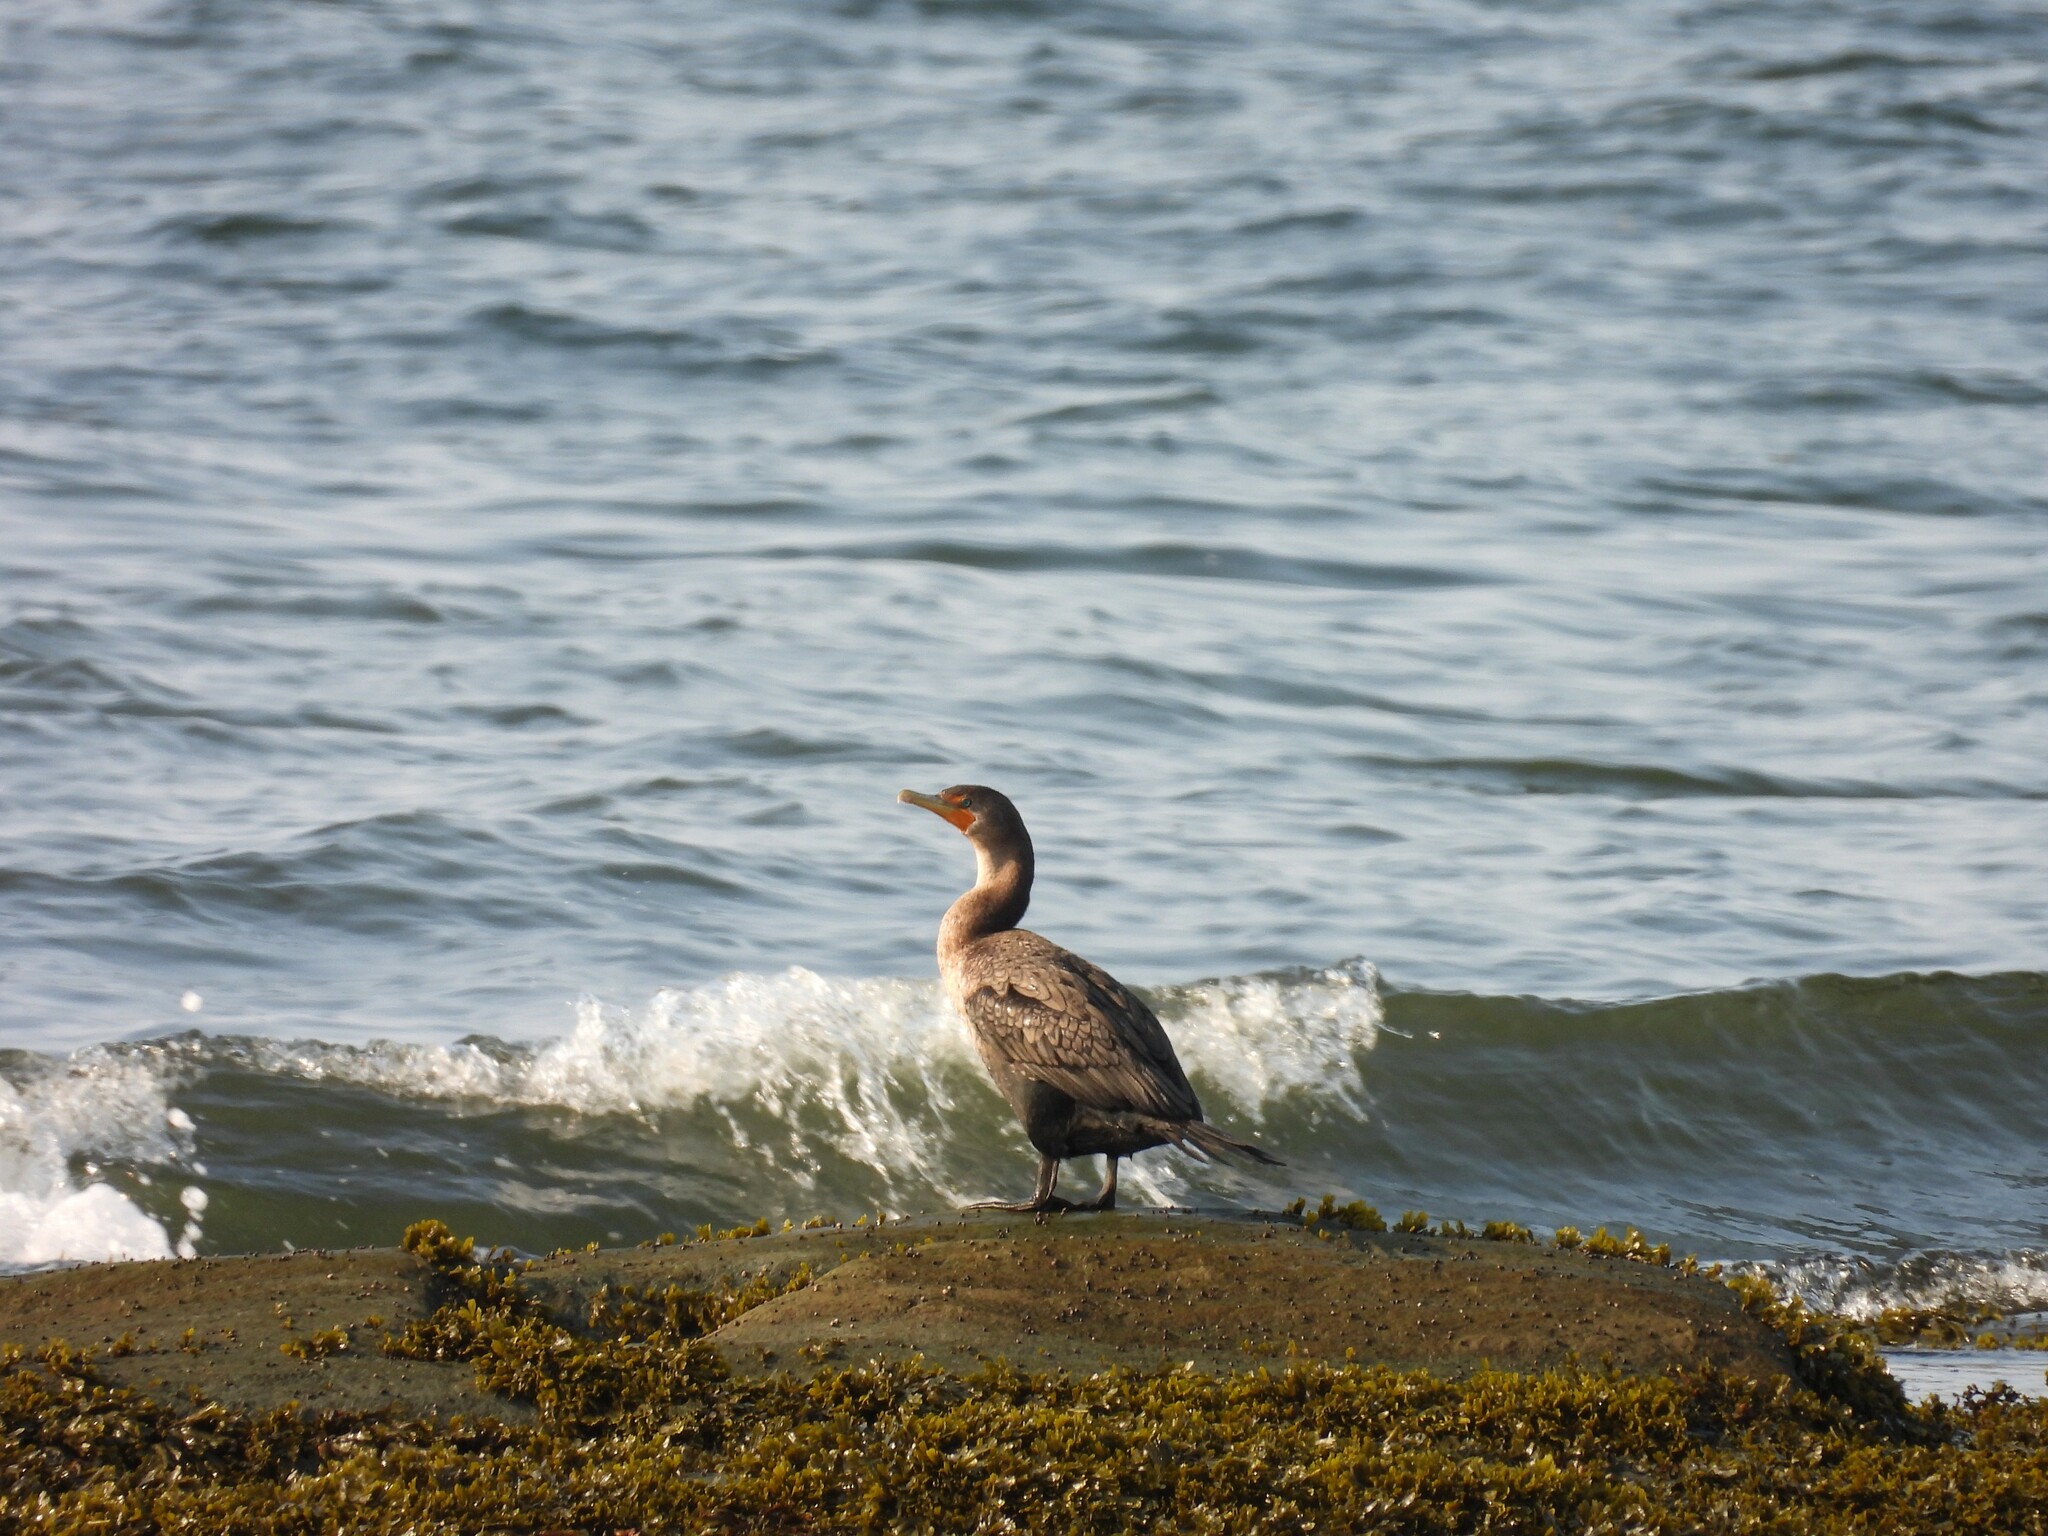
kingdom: Animalia
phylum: Chordata
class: Aves
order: Suliformes
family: Phalacrocoracidae
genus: Phalacrocorax
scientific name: Phalacrocorax auritus
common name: Double-crested cormorant
